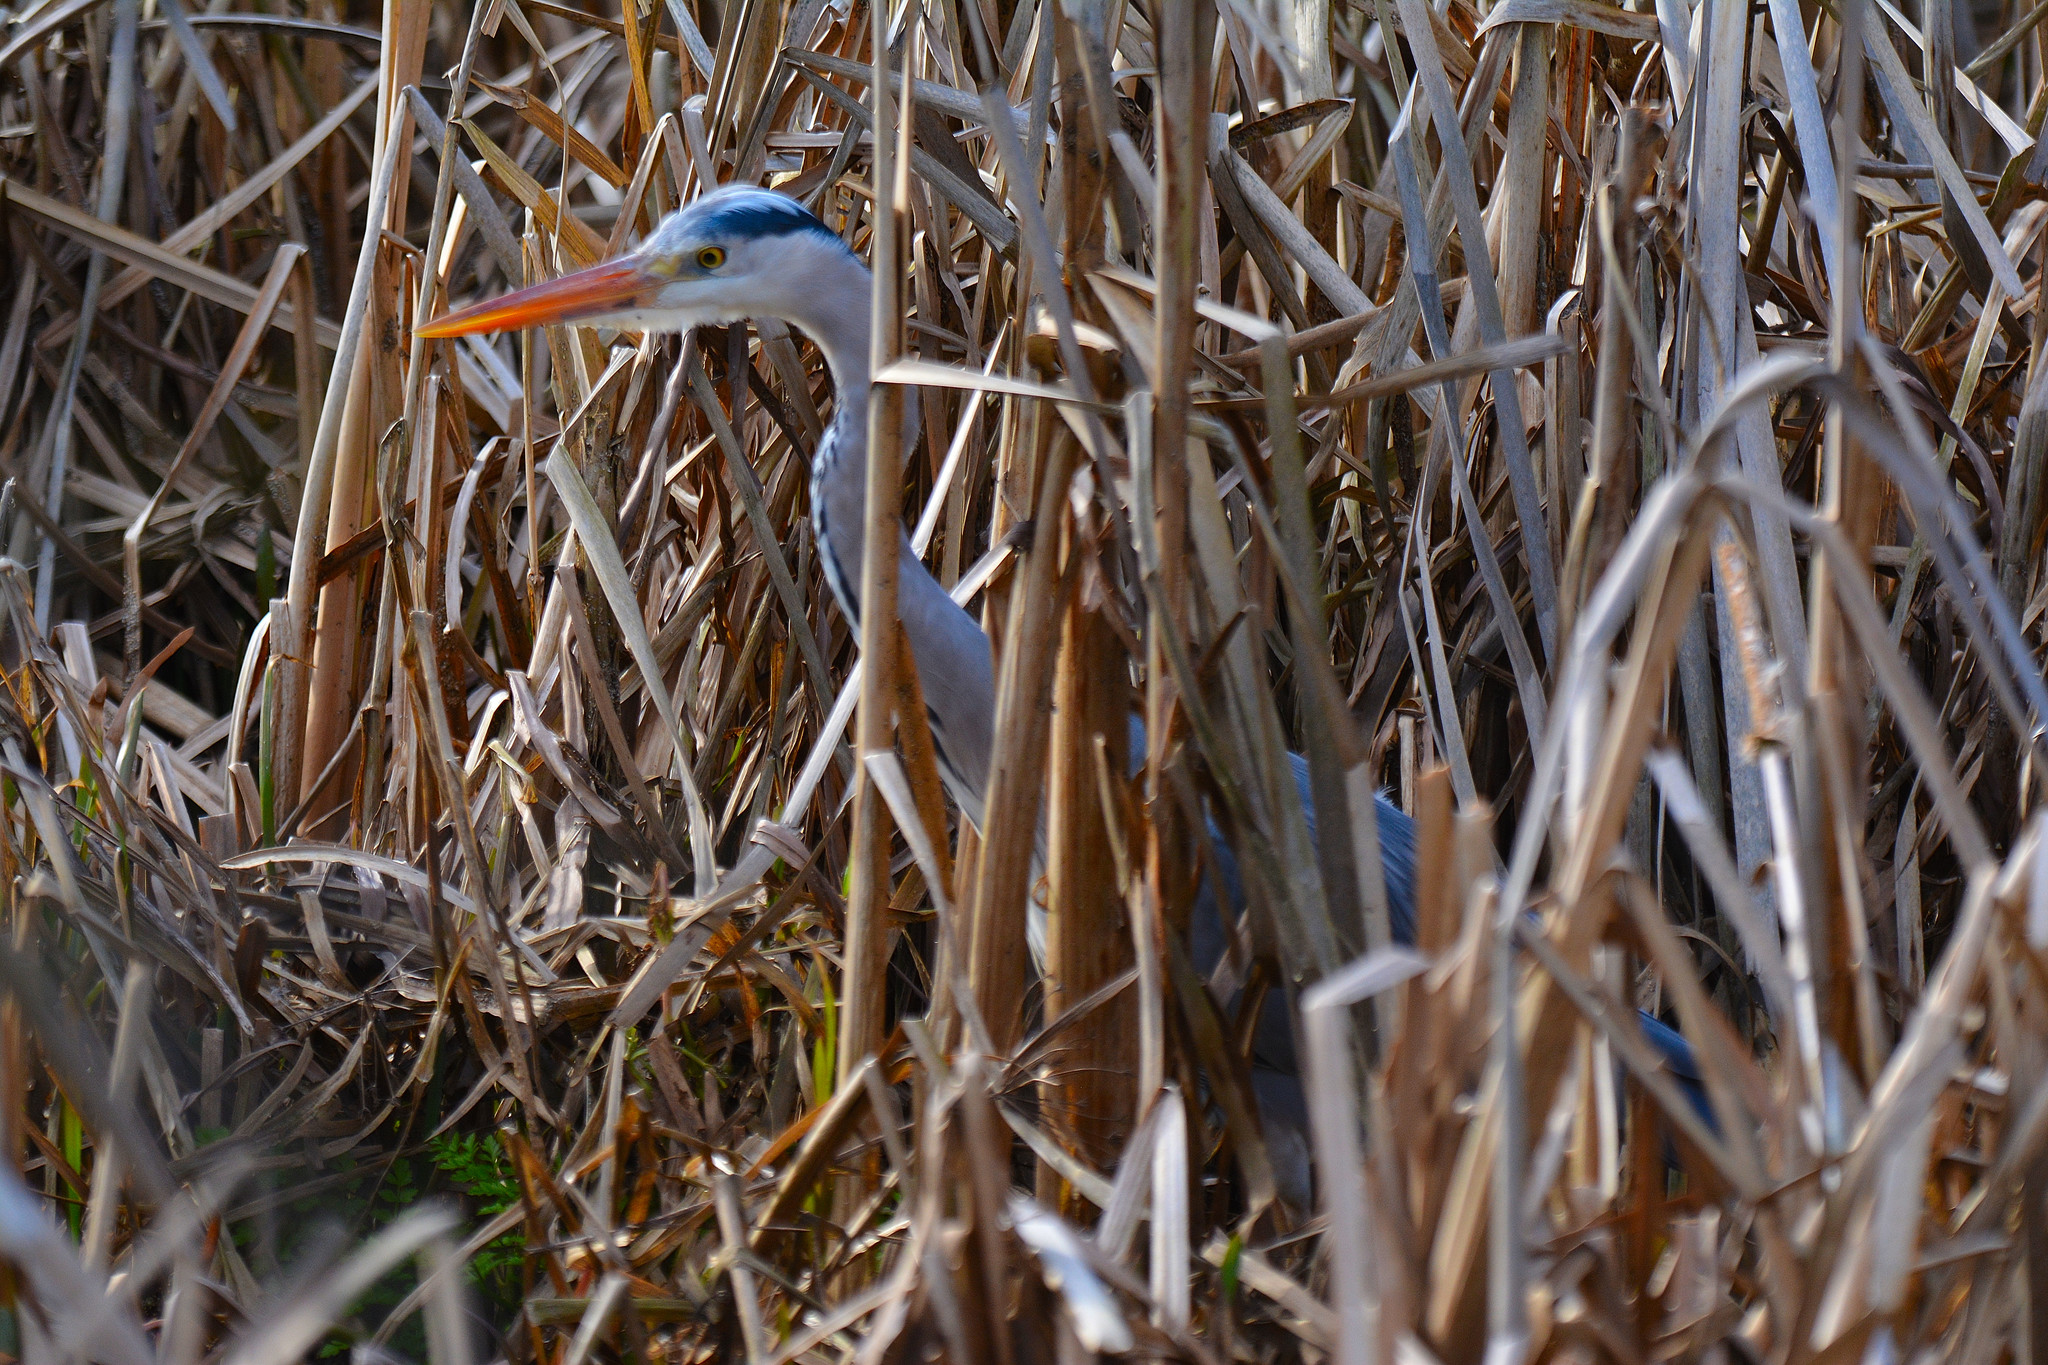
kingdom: Animalia
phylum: Chordata
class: Aves
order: Pelecaniformes
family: Ardeidae
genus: Ardea
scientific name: Ardea cinerea
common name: Grey heron
